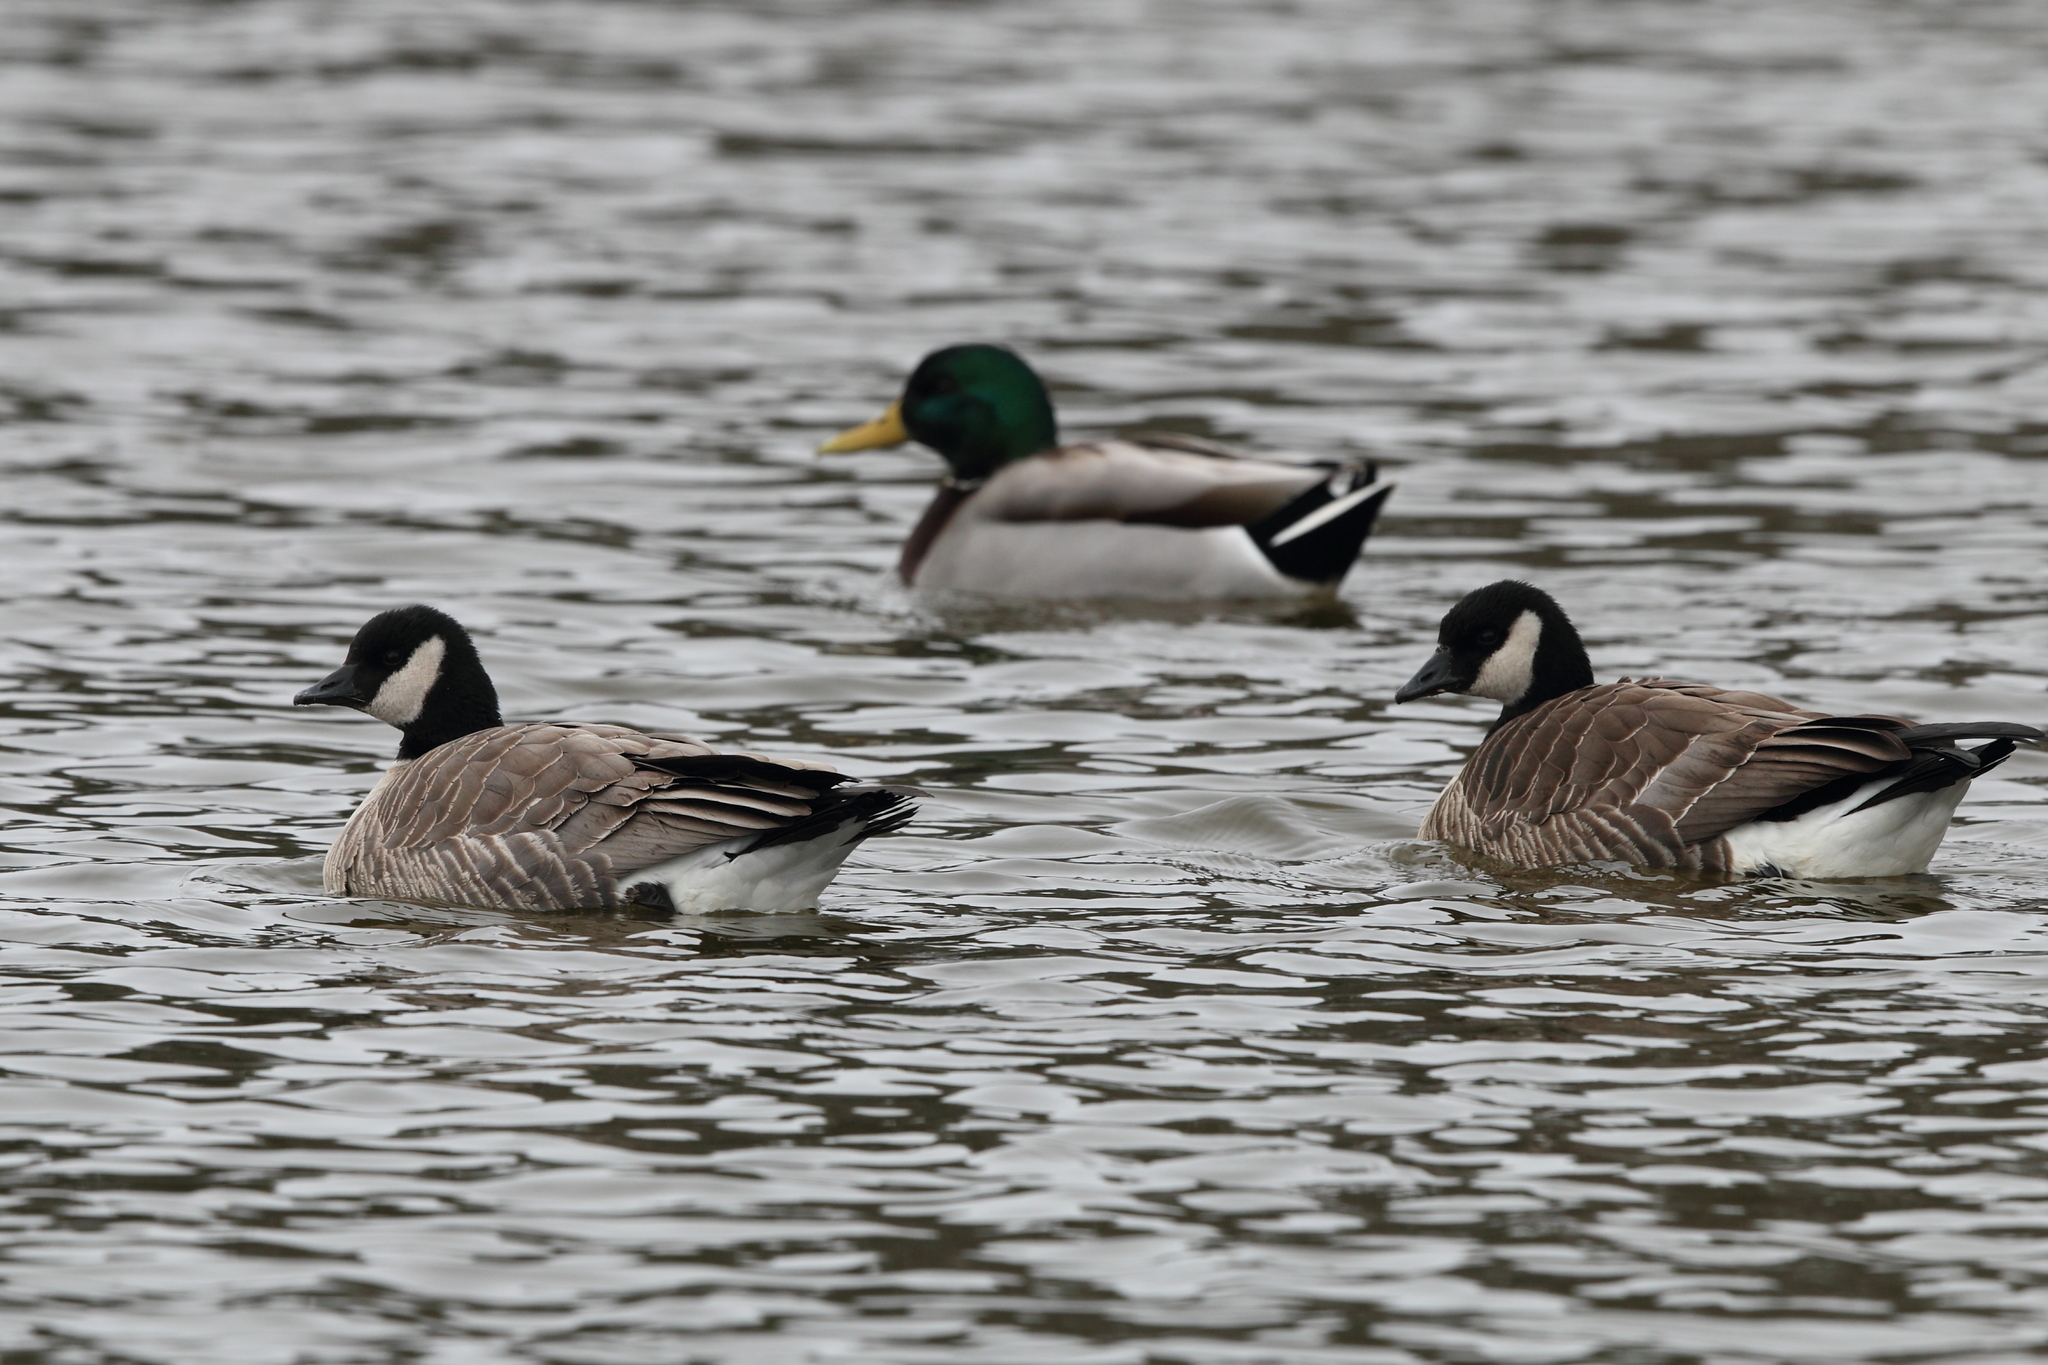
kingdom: Animalia
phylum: Chordata
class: Aves
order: Anseriformes
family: Anatidae
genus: Branta
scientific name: Branta hutchinsii
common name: Cackling goose
